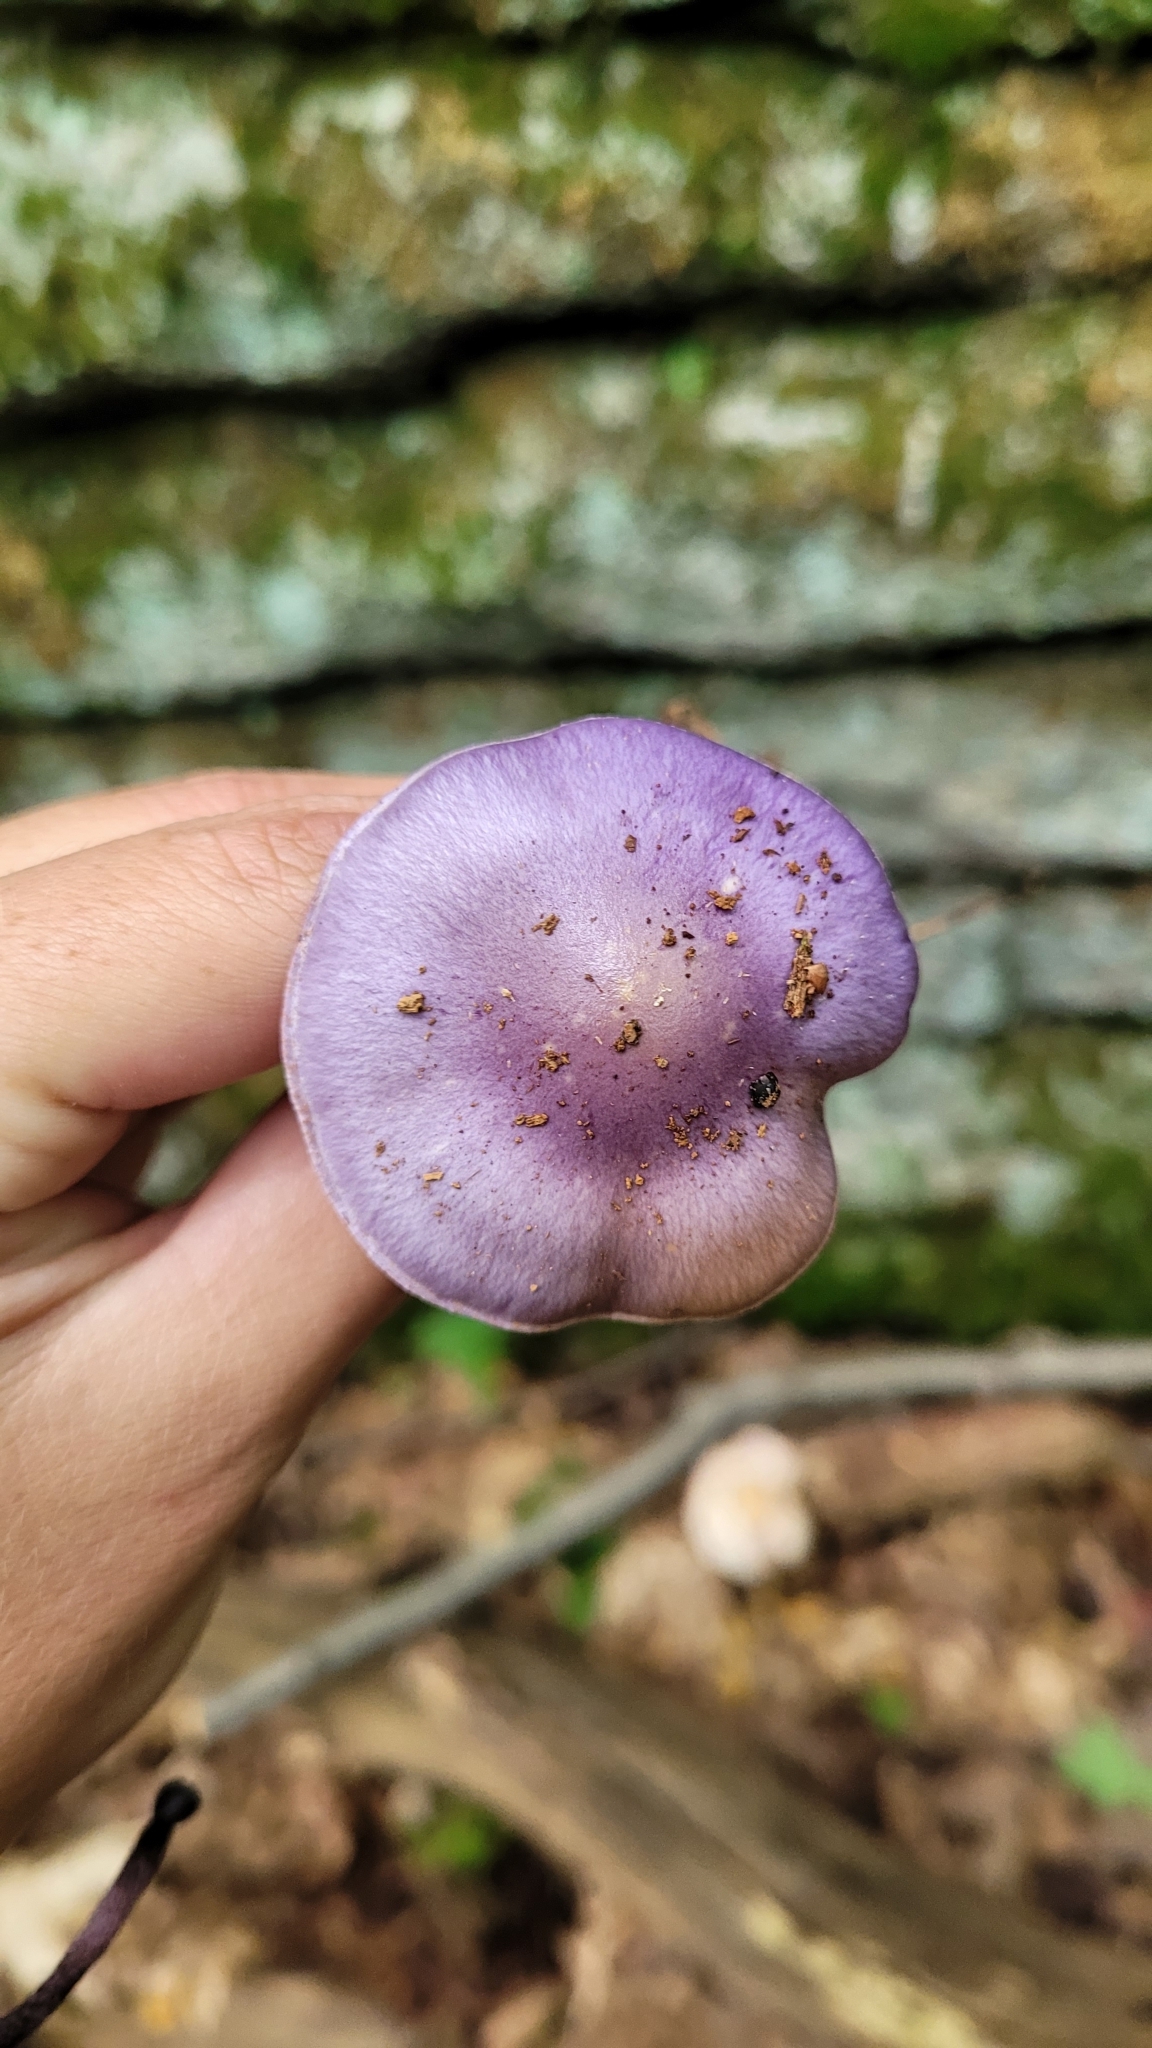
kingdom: Fungi
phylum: Basidiomycota
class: Agaricomycetes
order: Agaricales
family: Cortinariaceae
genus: Cortinarius
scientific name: Cortinarius iodes
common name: Viscid violet cort
